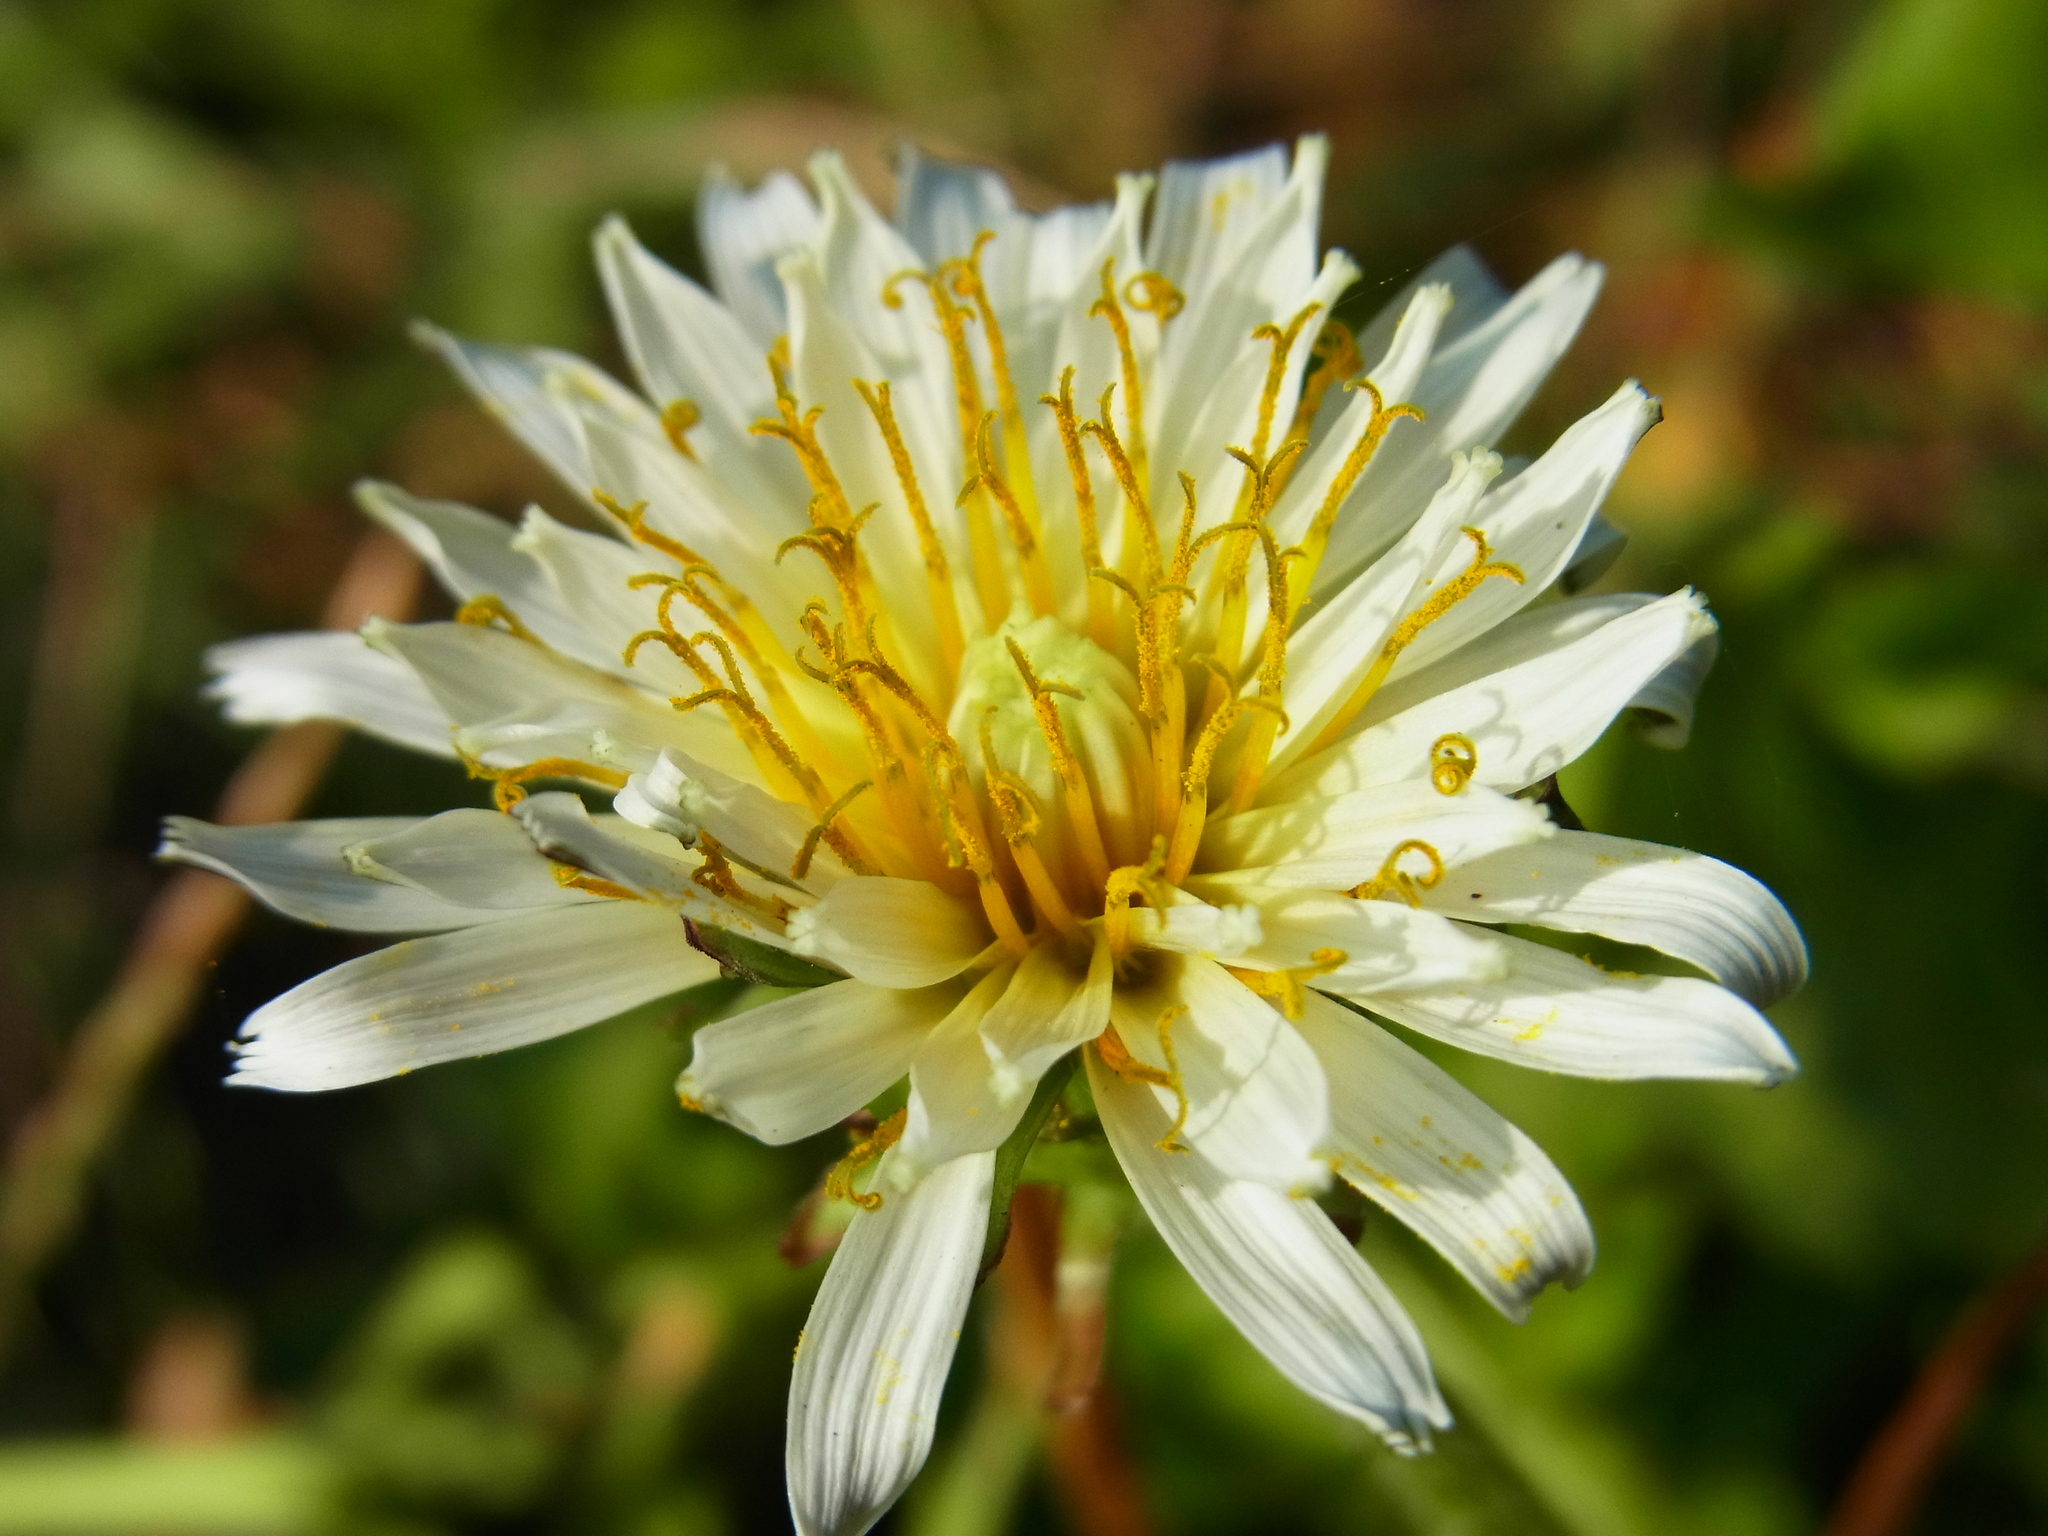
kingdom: Plantae
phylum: Tracheophyta
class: Magnoliopsida
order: Asterales
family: Asteraceae
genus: Taraxacum
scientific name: Taraxacum albidum
